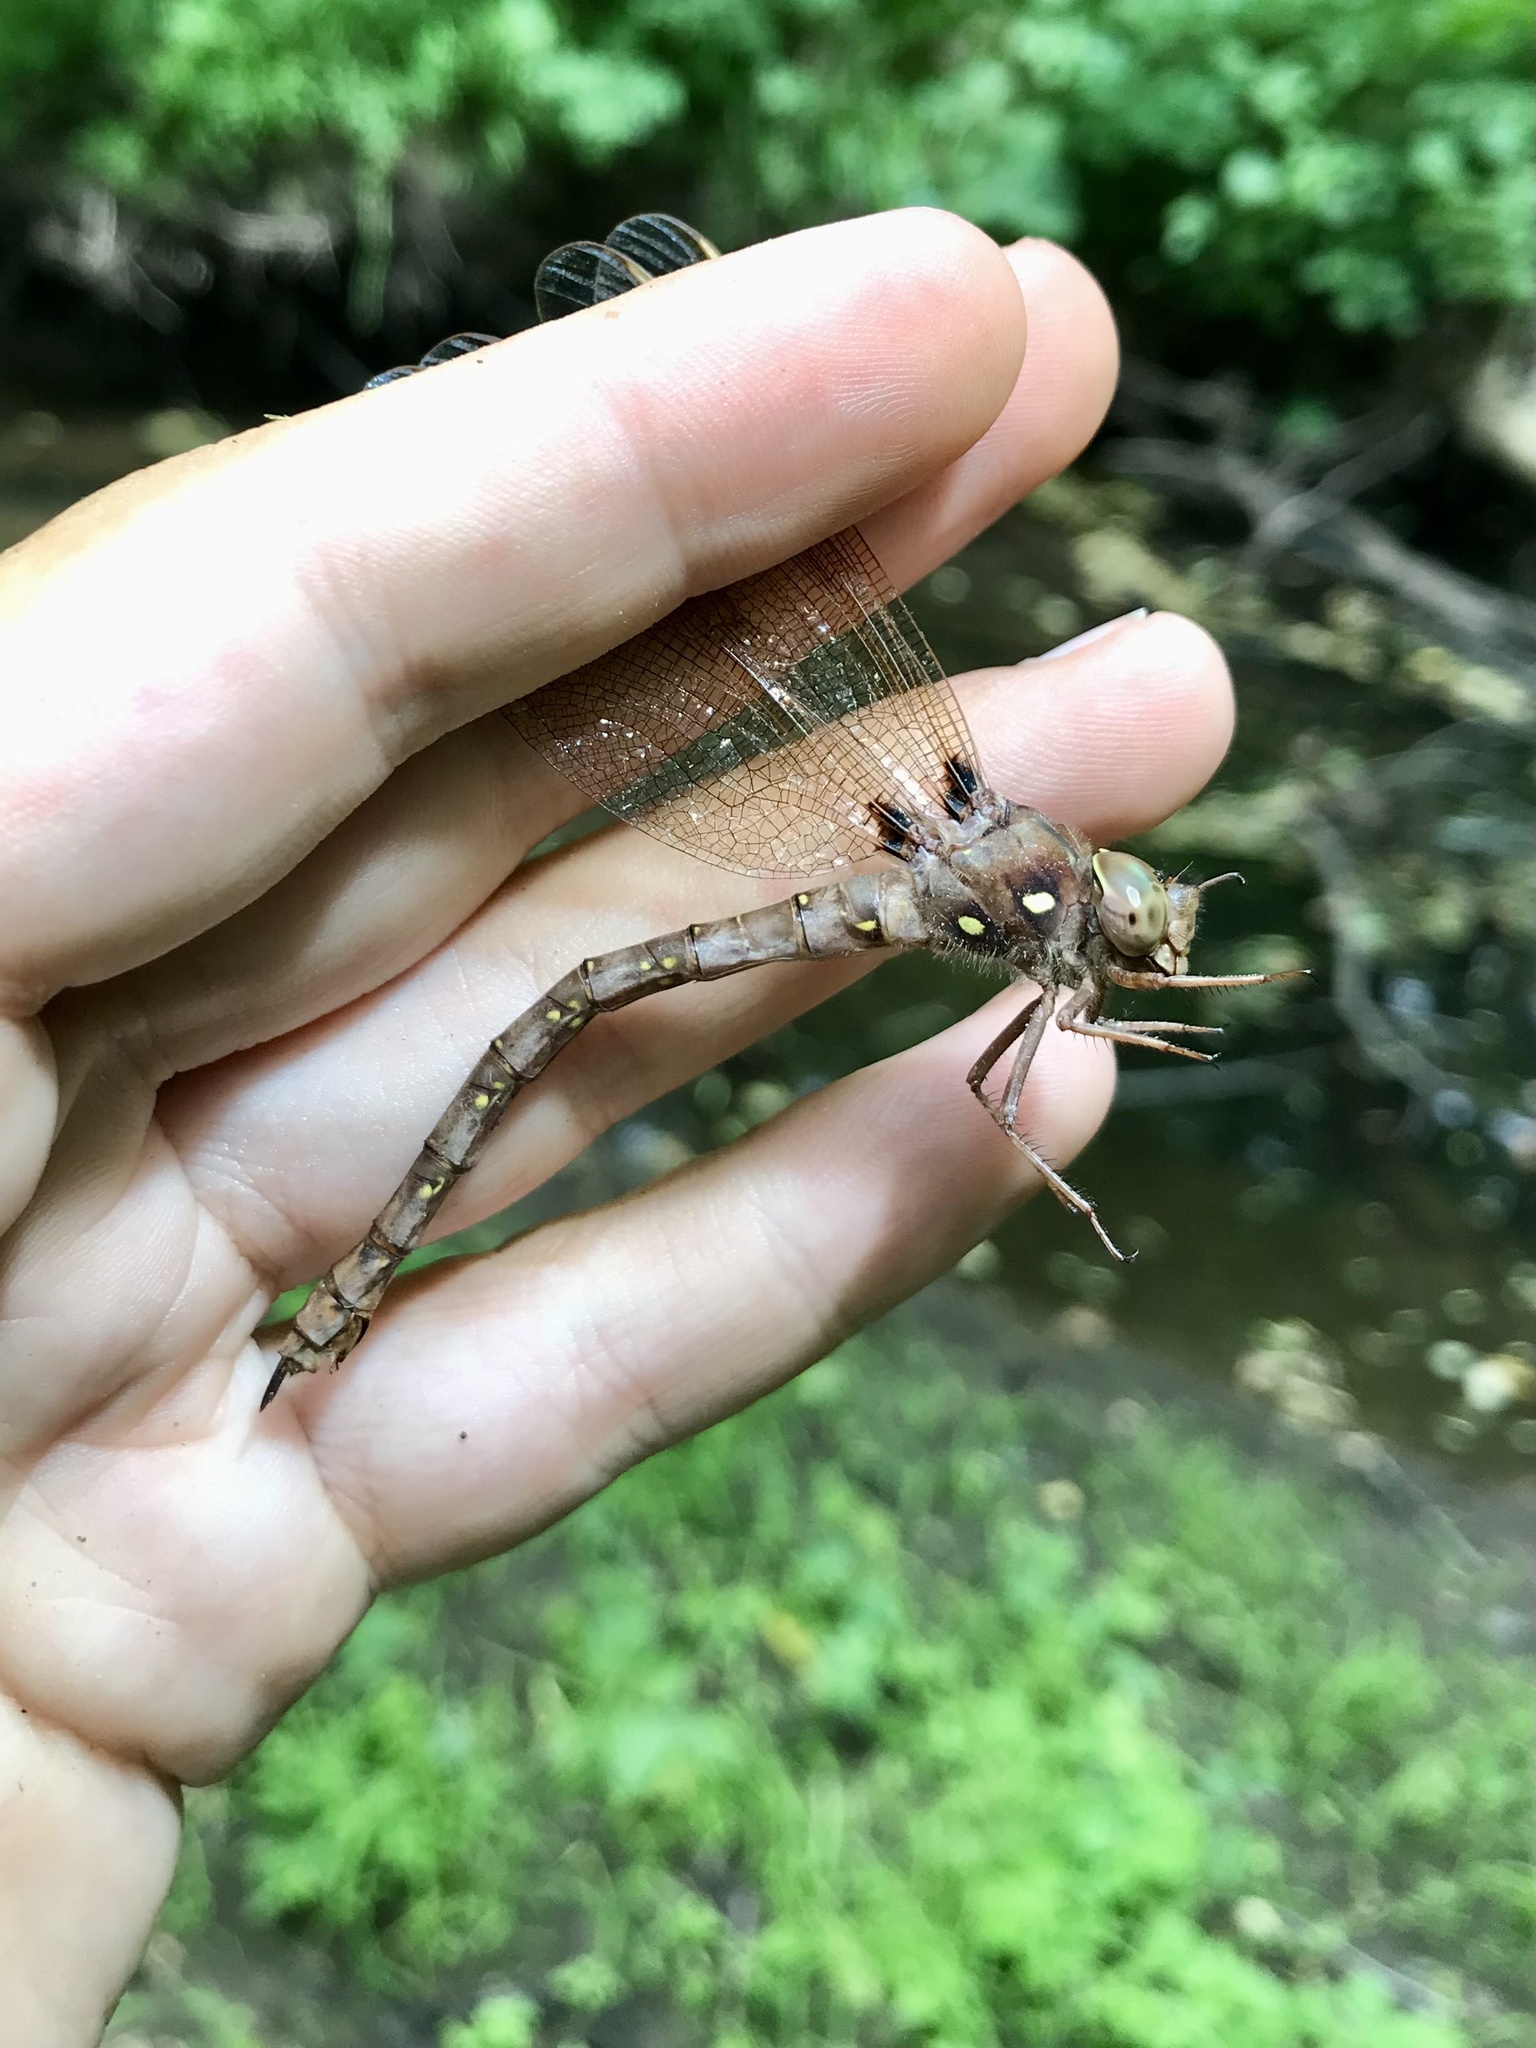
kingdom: Animalia
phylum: Arthropoda
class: Insecta
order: Odonata
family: Aeshnidae
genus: Boyeria
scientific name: Boyeria vinosa
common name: Fawn darner
